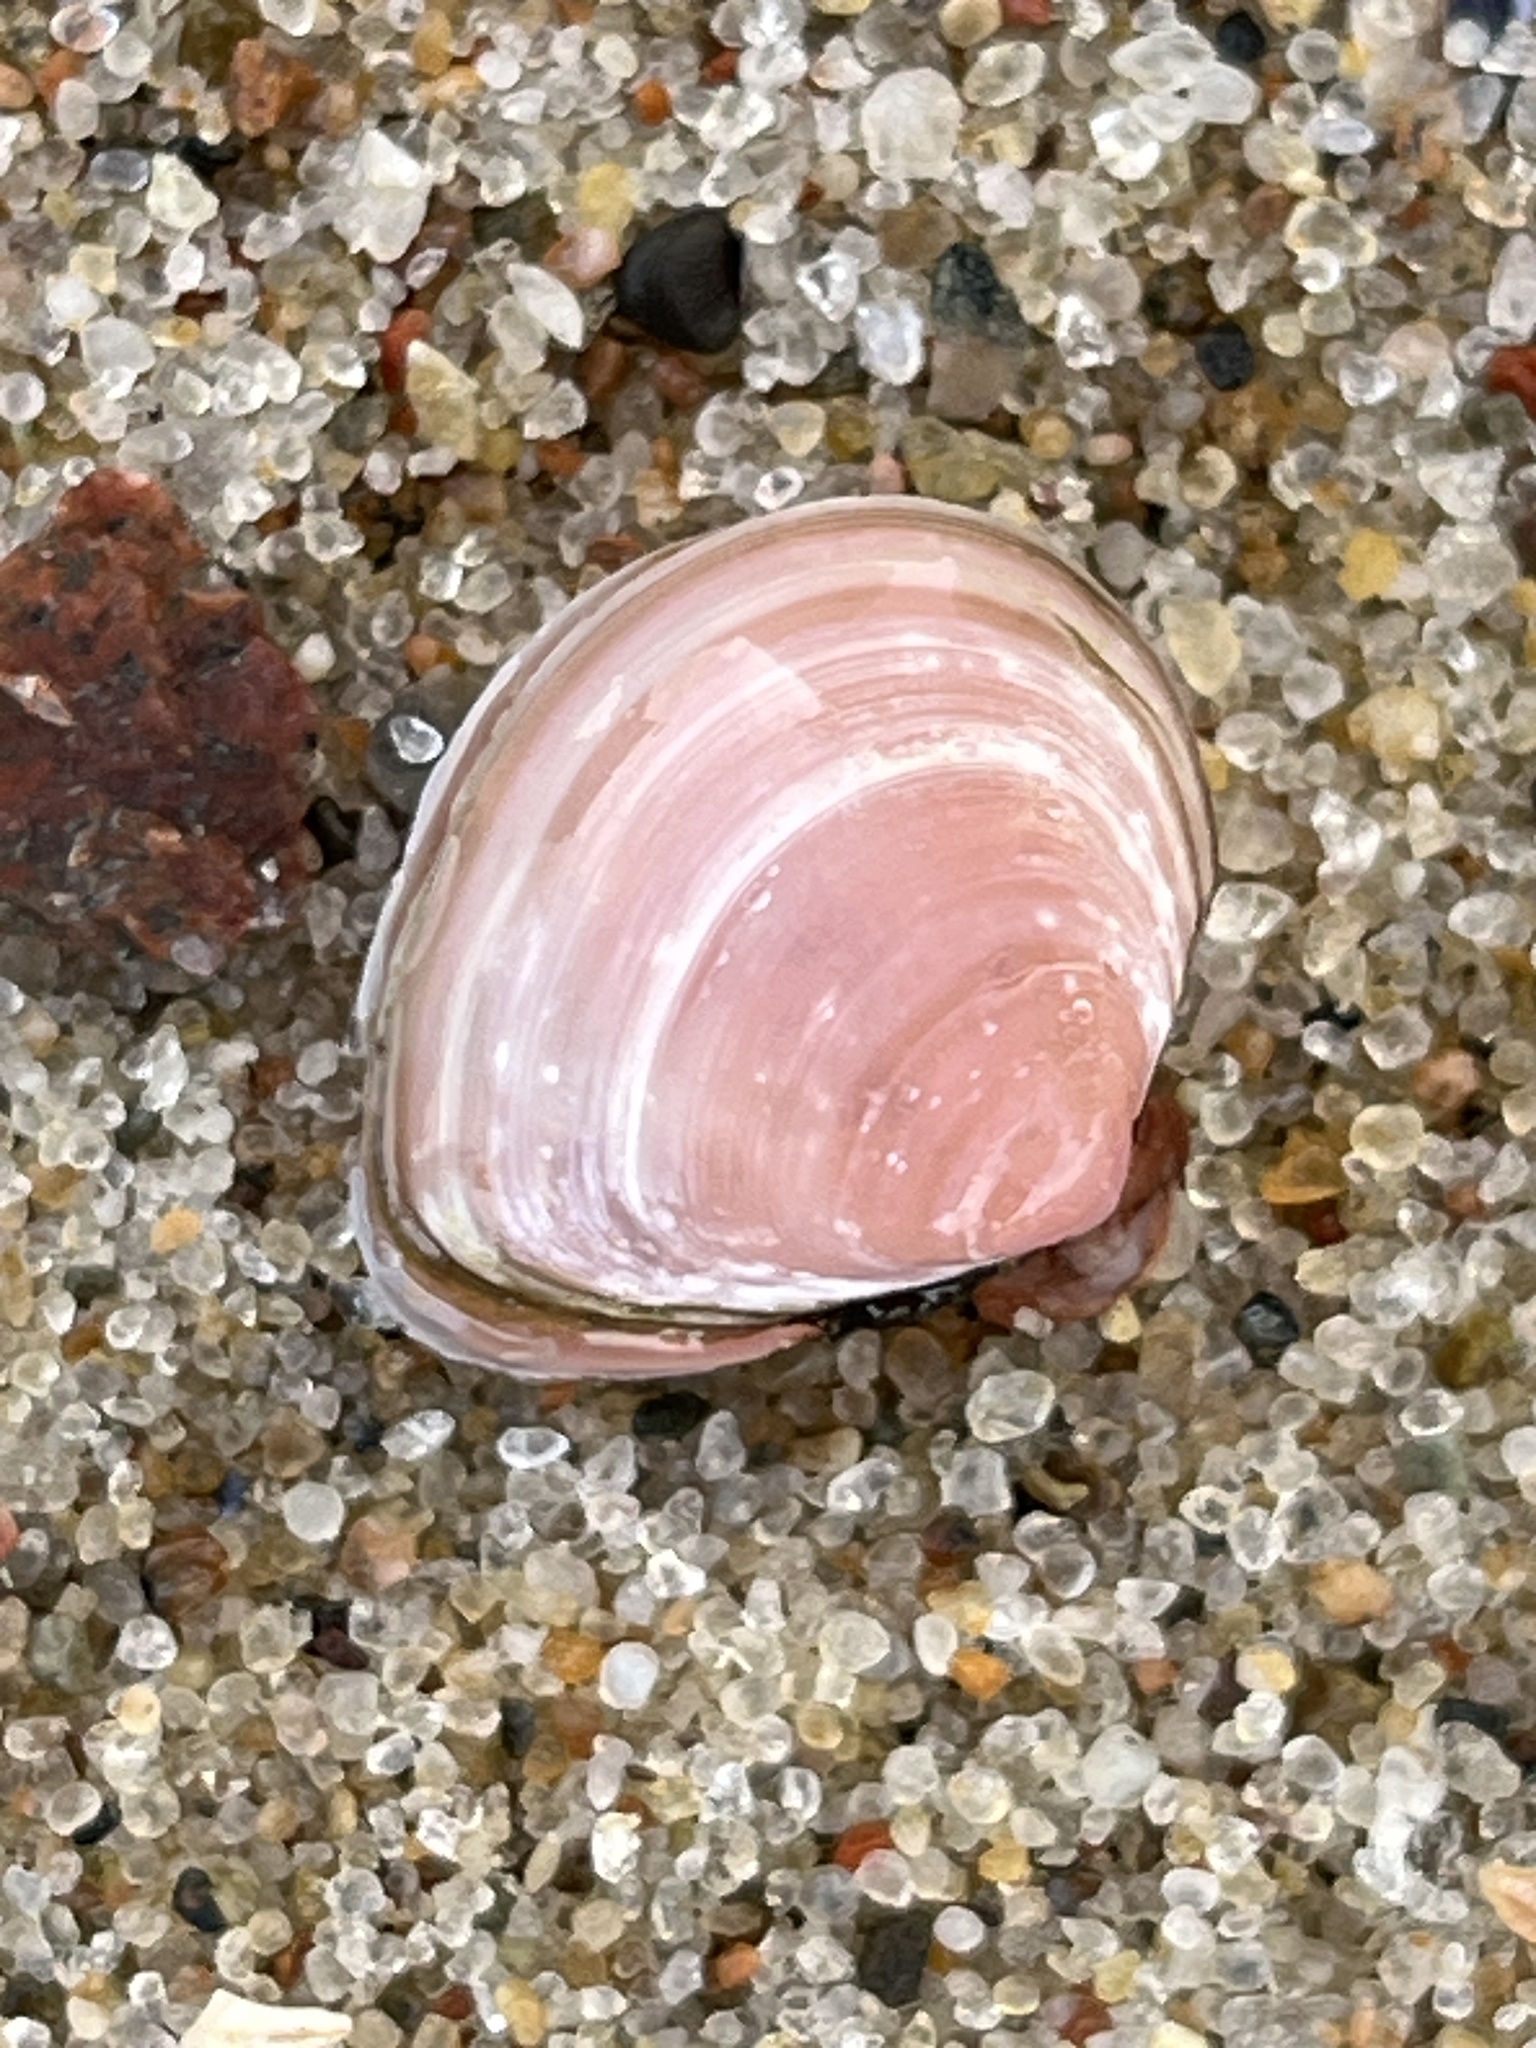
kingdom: Animalia
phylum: Mollusca
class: Bivalvia
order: Cardiida
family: Tellinidae
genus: Macoma
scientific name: Macoma balthica
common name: Baltic tellin
